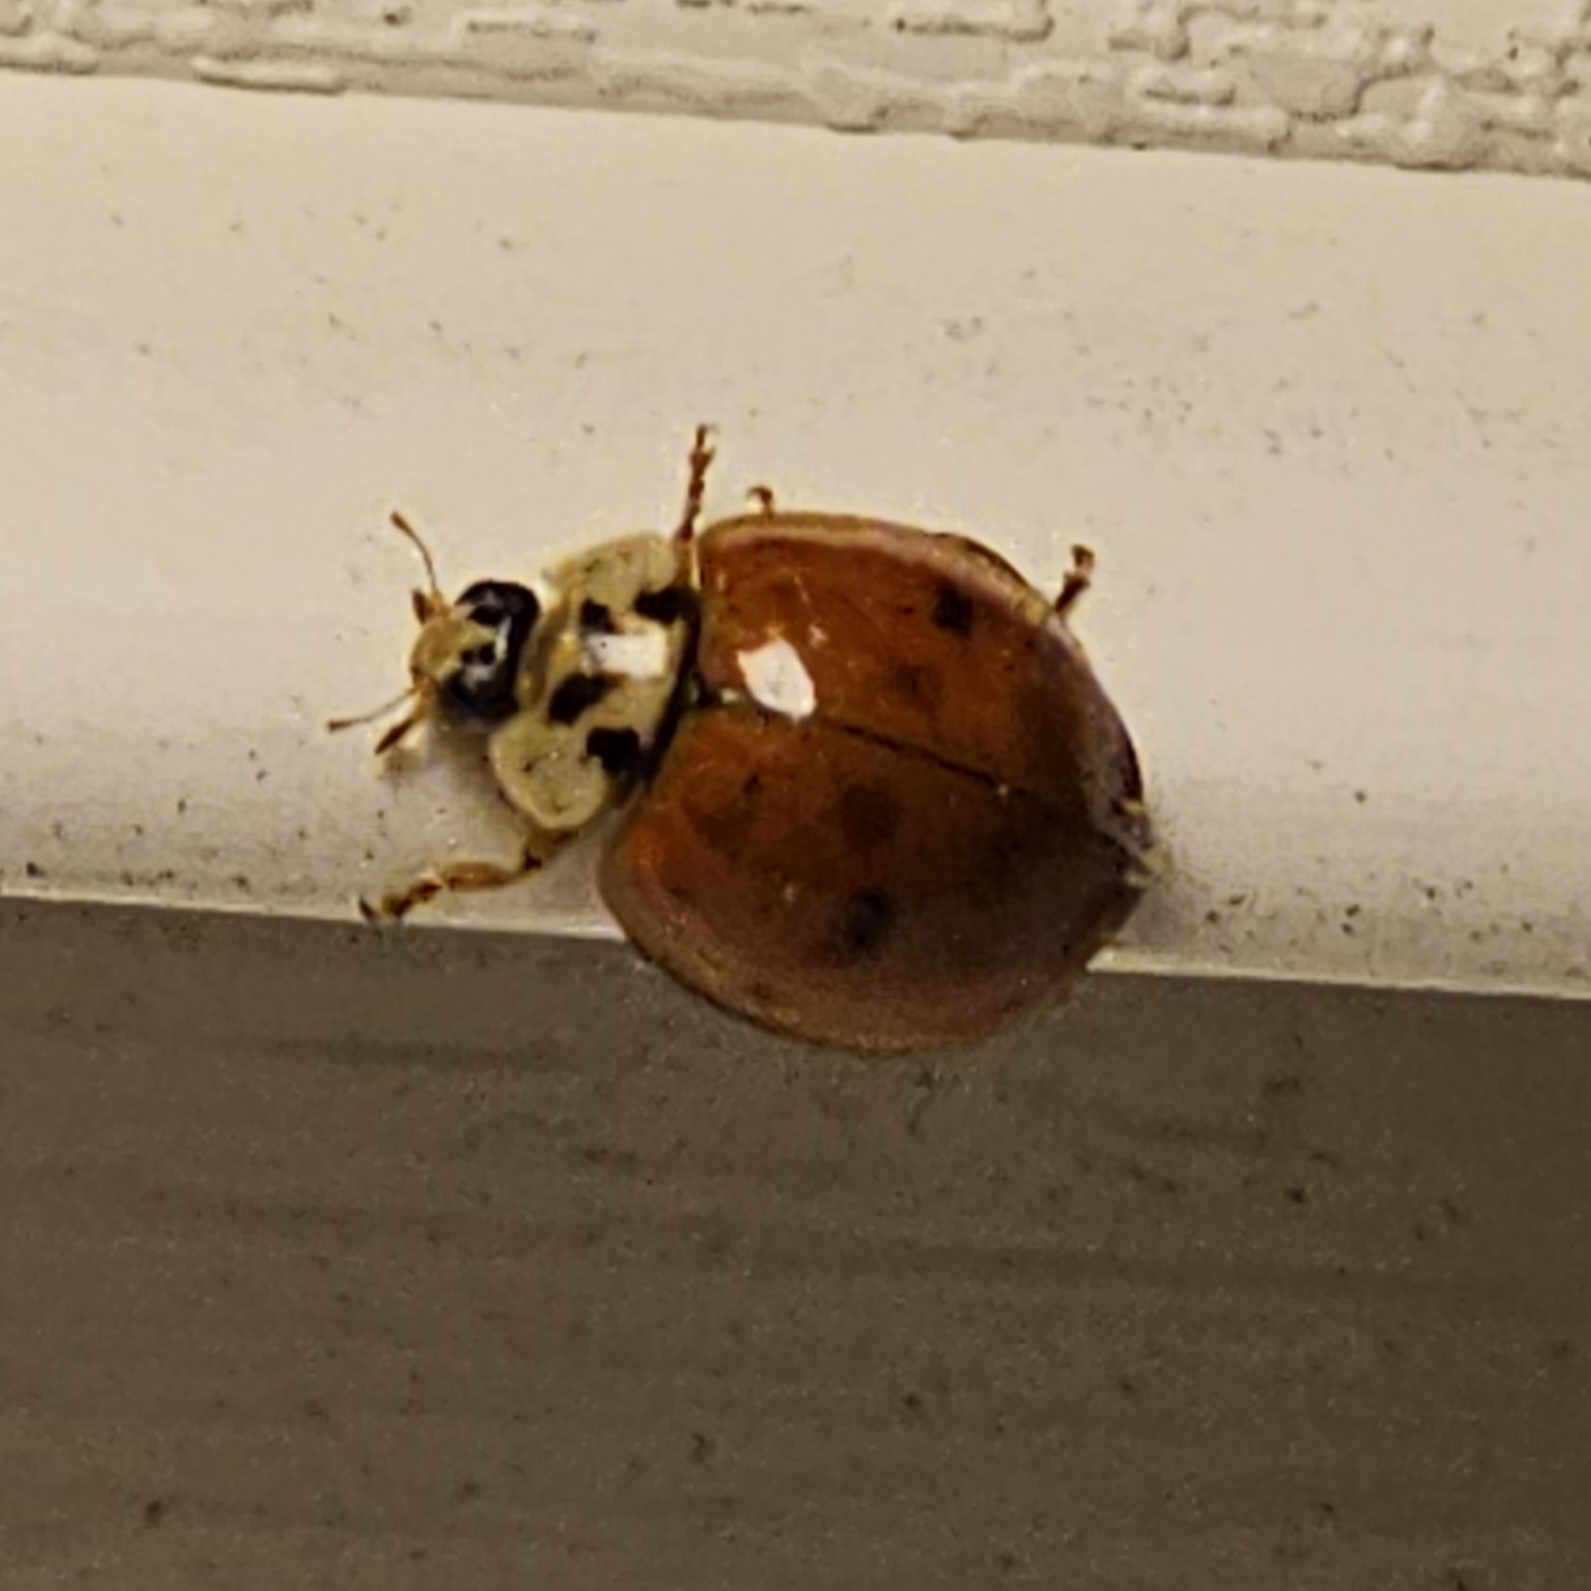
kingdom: Fungi
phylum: Ascomycota
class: Laboulbeniomycetes
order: Laboulbeniales
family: Laboulbeniaceae
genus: Hesperomyces
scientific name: Hesperomyces harmoniae
